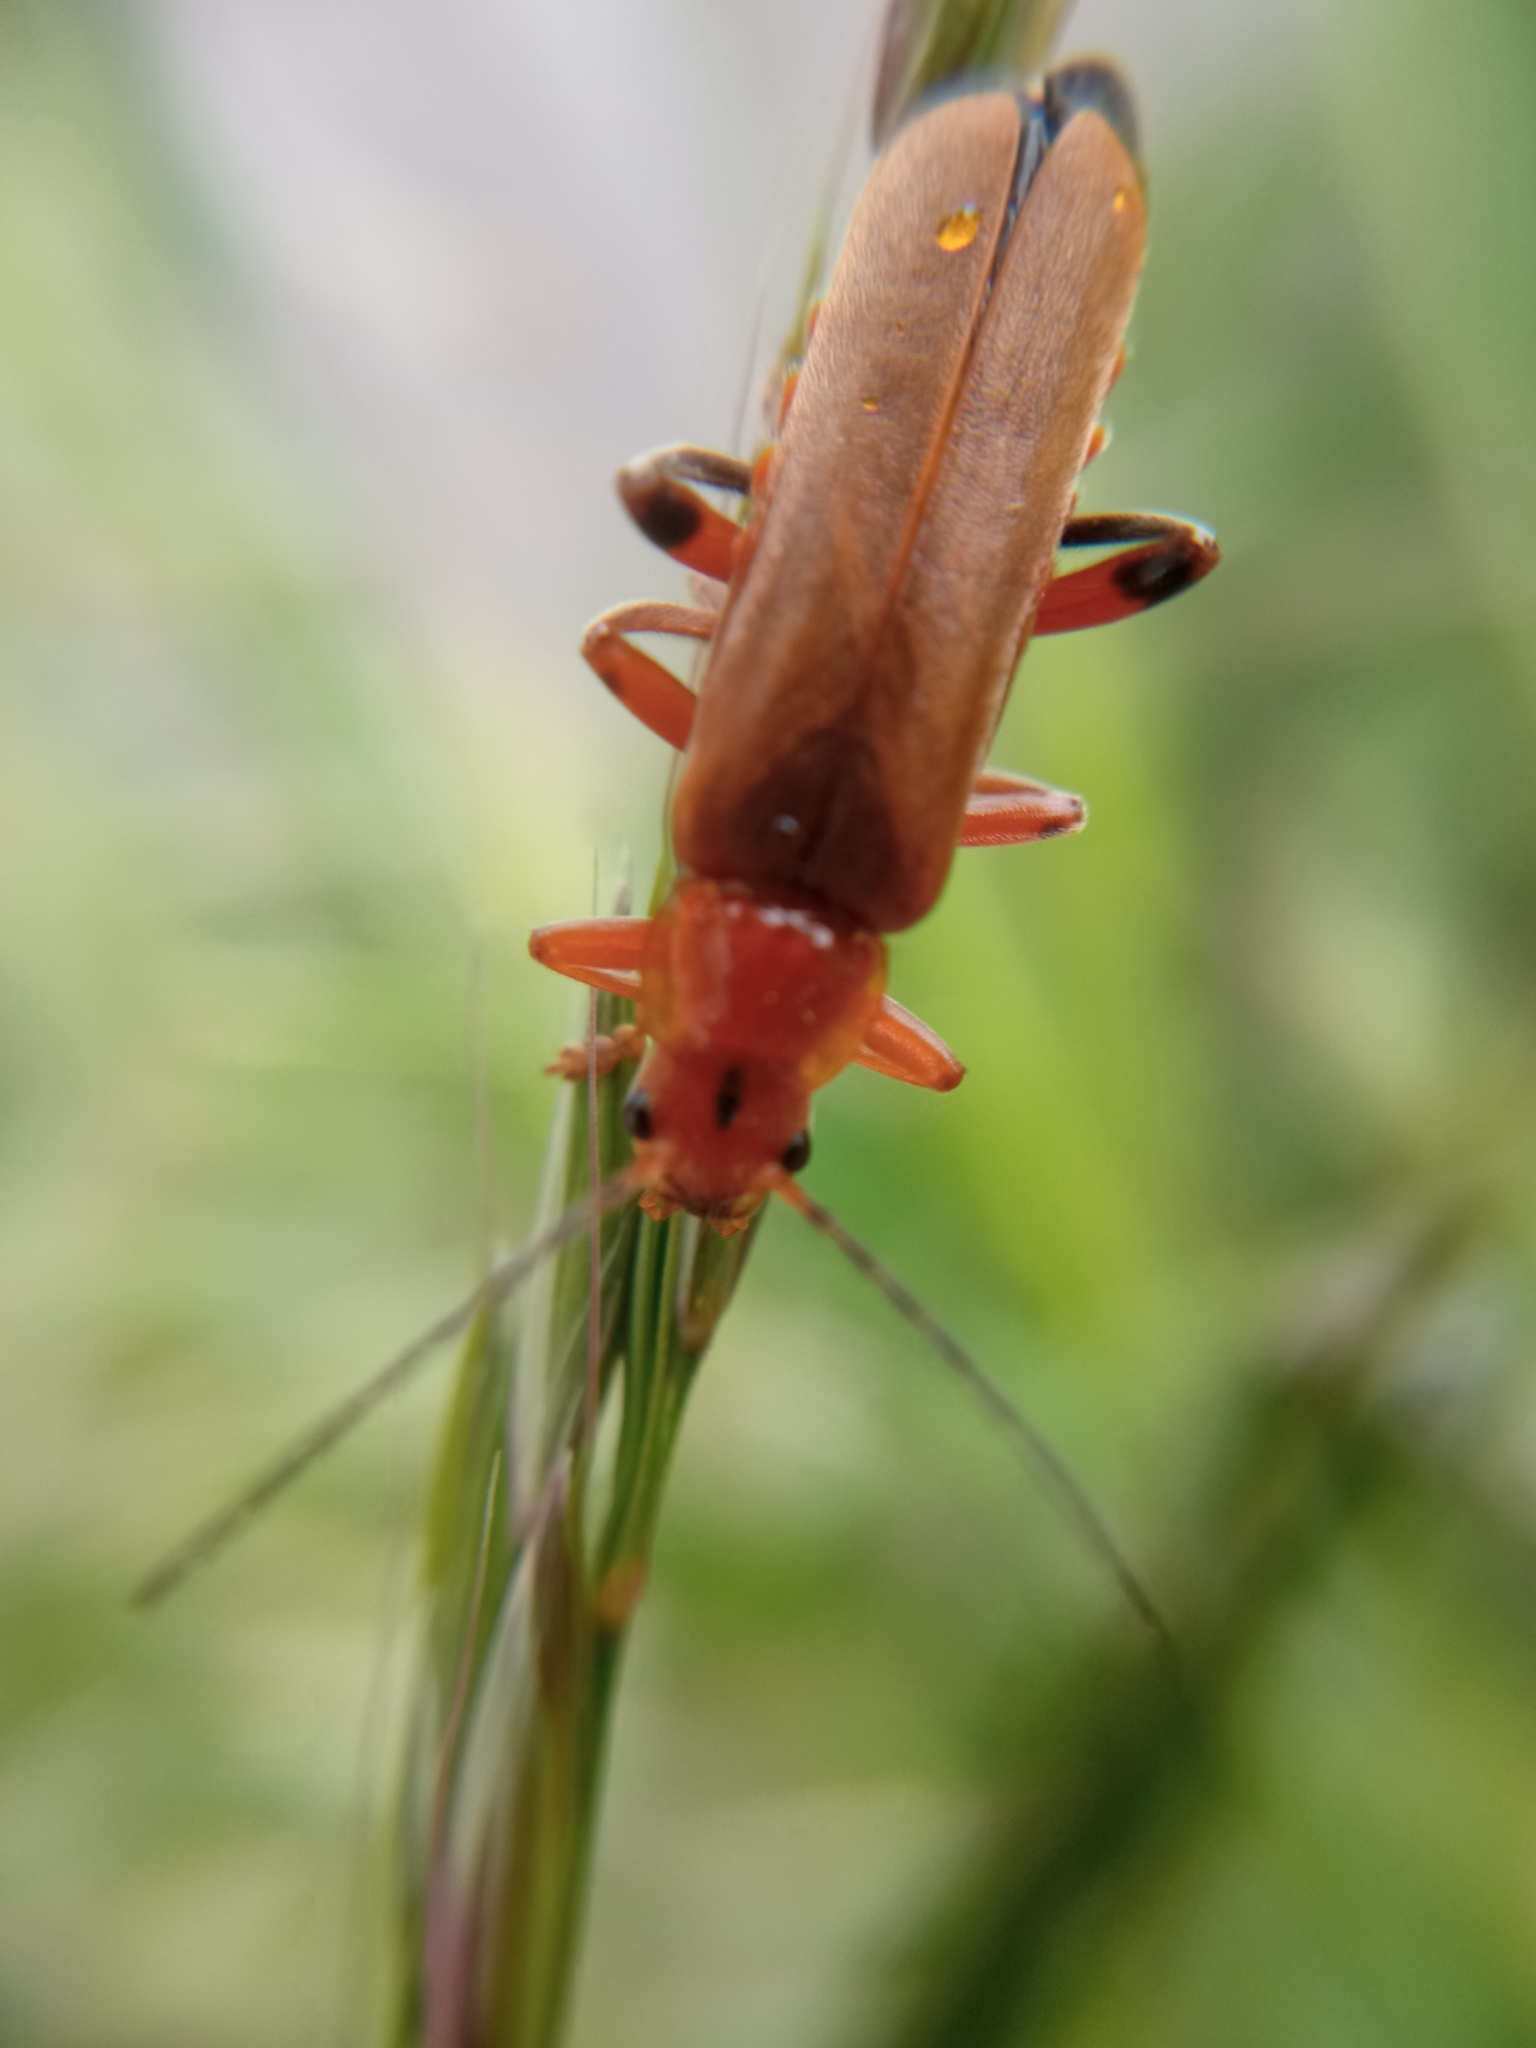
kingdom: Animalia
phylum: Arthropoda
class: Insecta
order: Coleoptera
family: Cantharidae
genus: Cantharis
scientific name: Cantharis livida
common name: Livid soldier beetle
